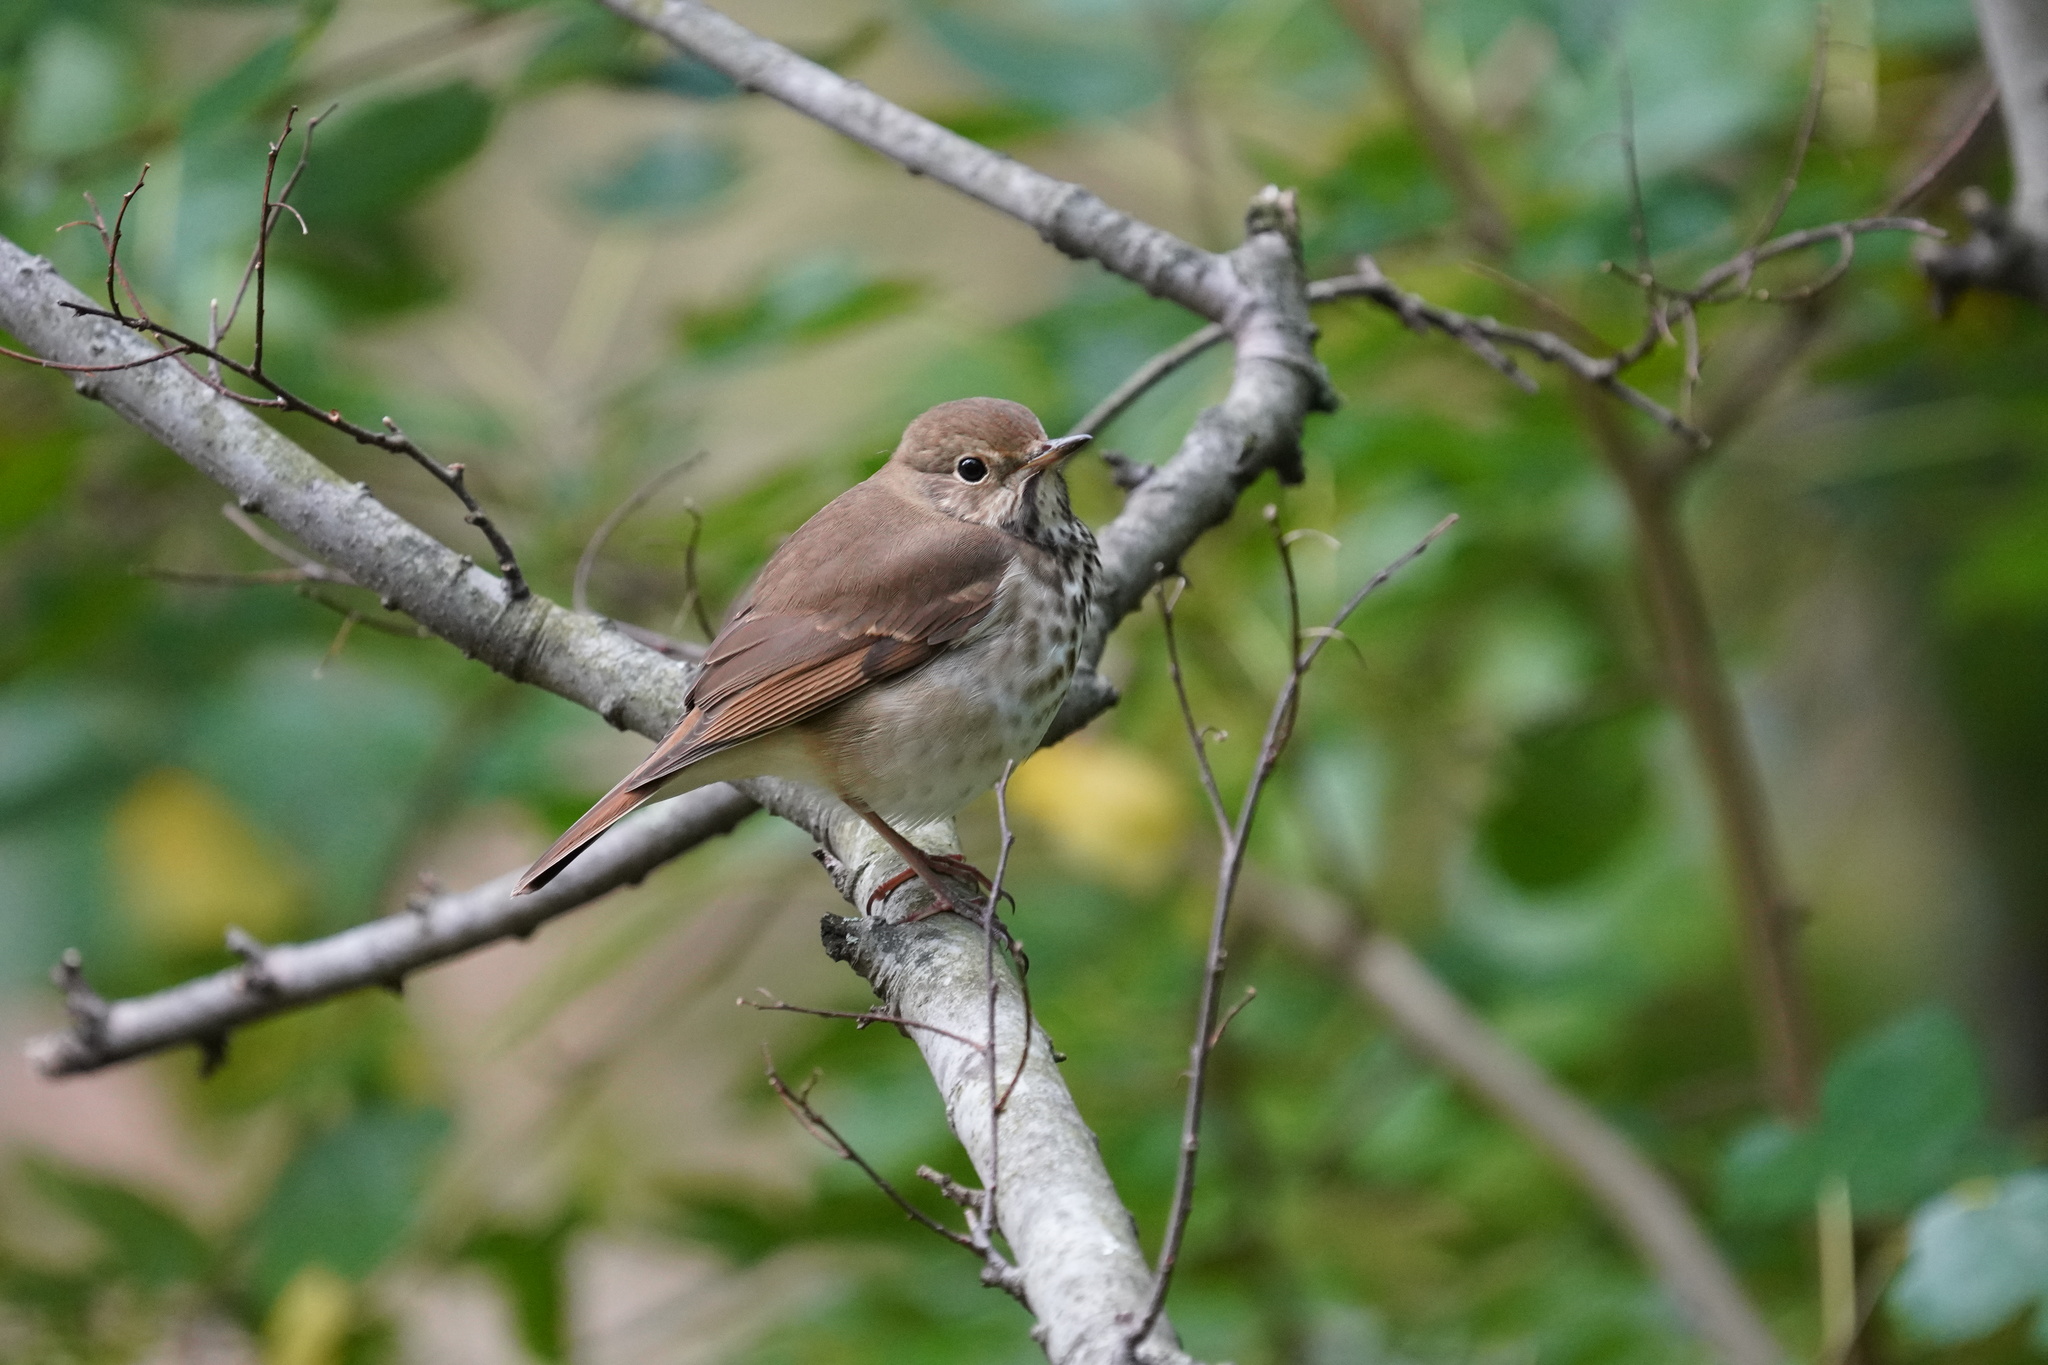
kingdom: Animalia
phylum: Chordata
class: Aves
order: Passeriformes
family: Turdidae
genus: Catharus
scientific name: Catharus guttatus
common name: Hermit thrush
